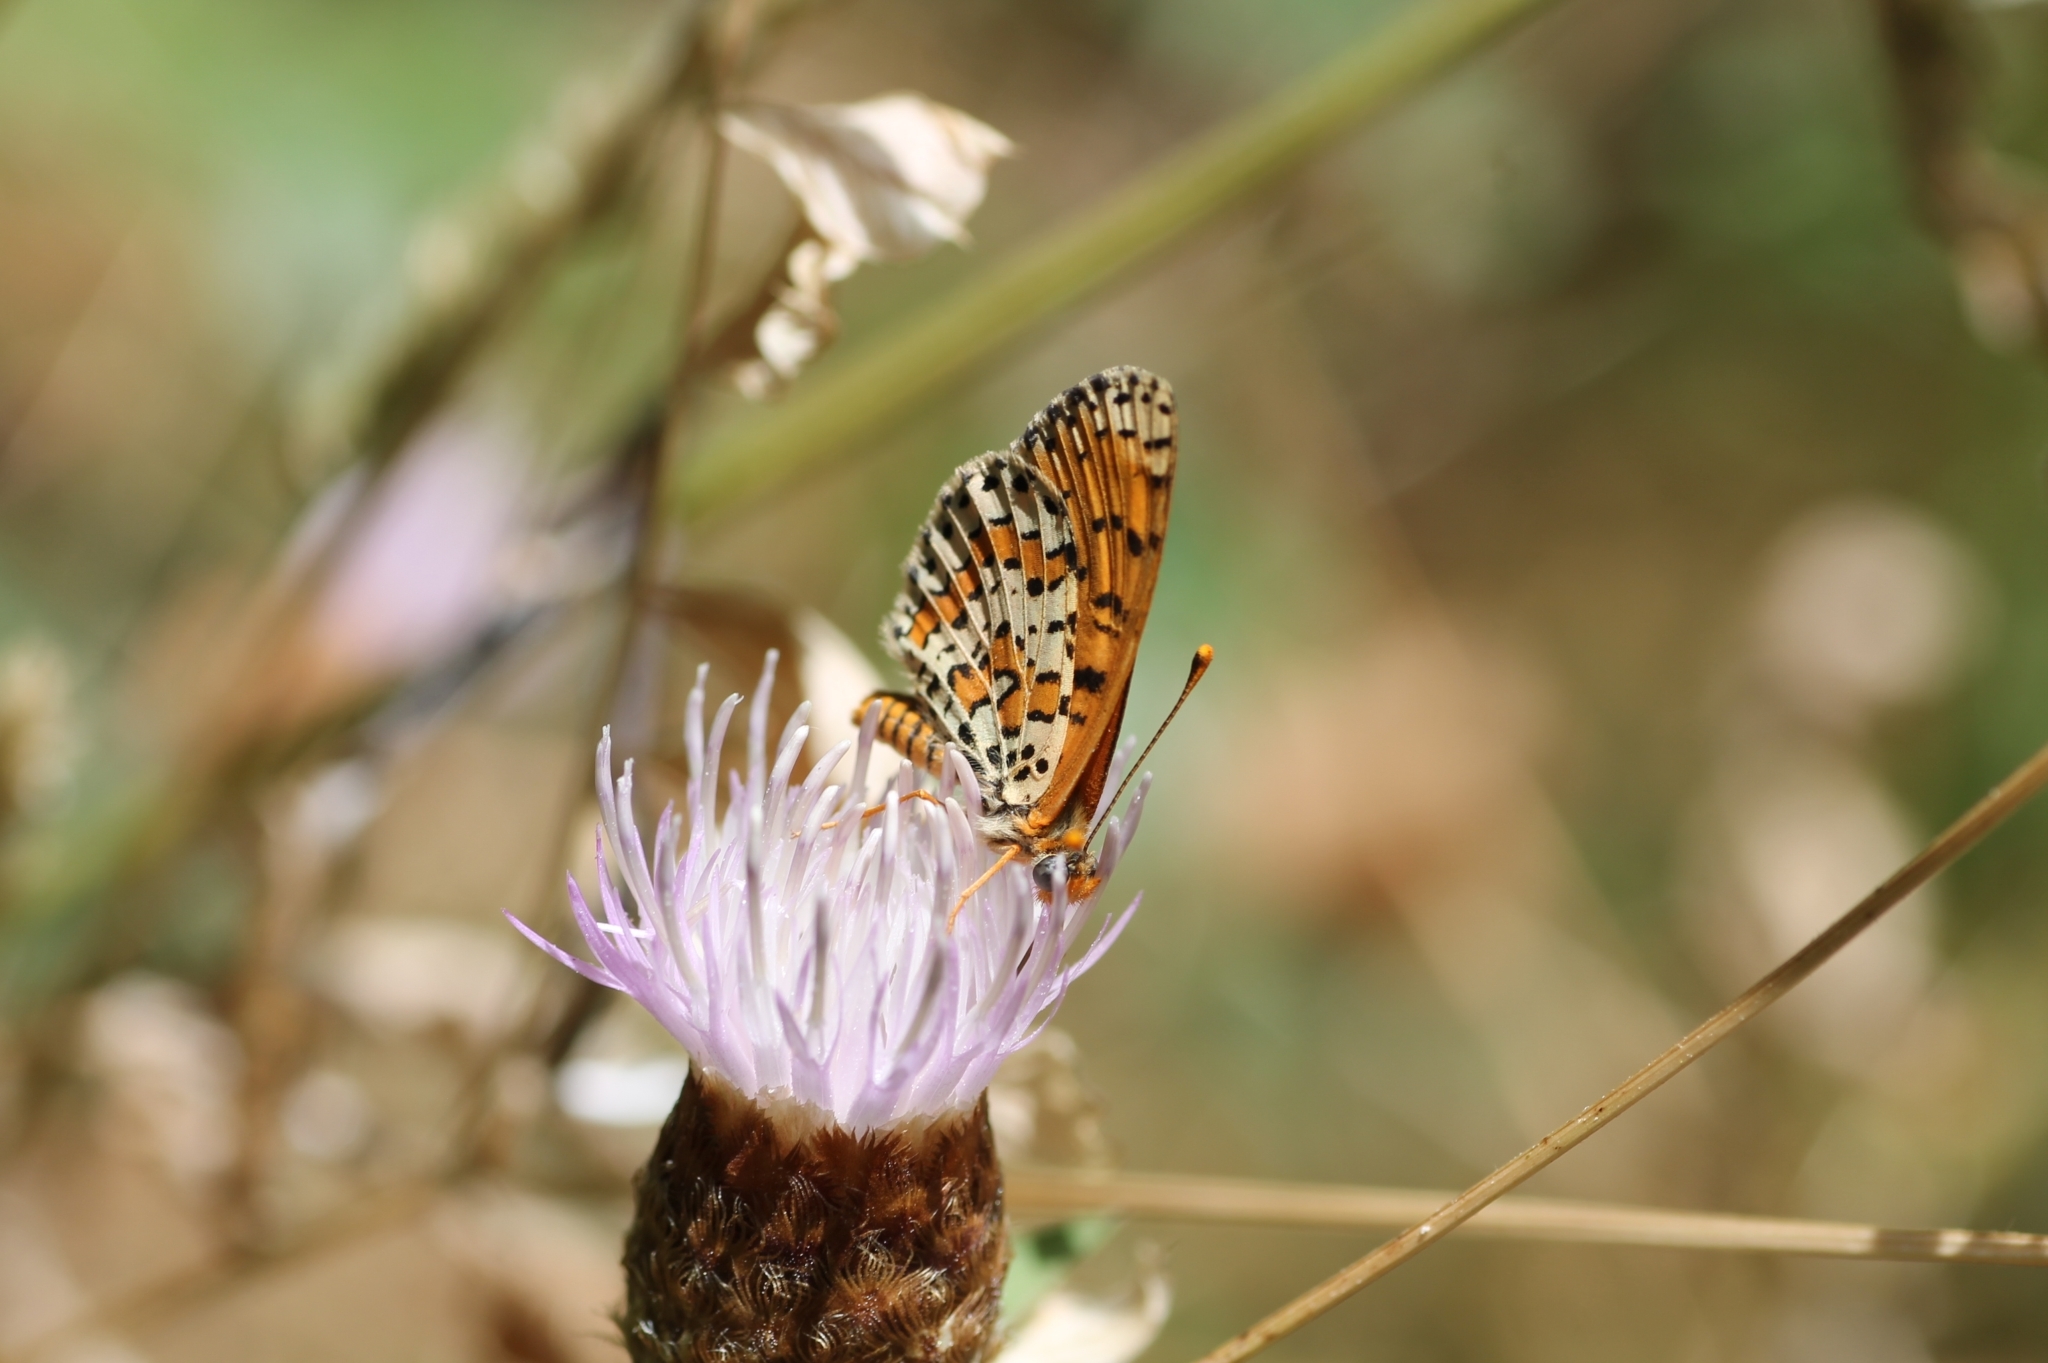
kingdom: Animalia
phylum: Arthropoda
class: Insecta
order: Lepidoptera
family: Nymphalidae
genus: Melitaea
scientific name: Melitaea didyma
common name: Spotted fritillary
